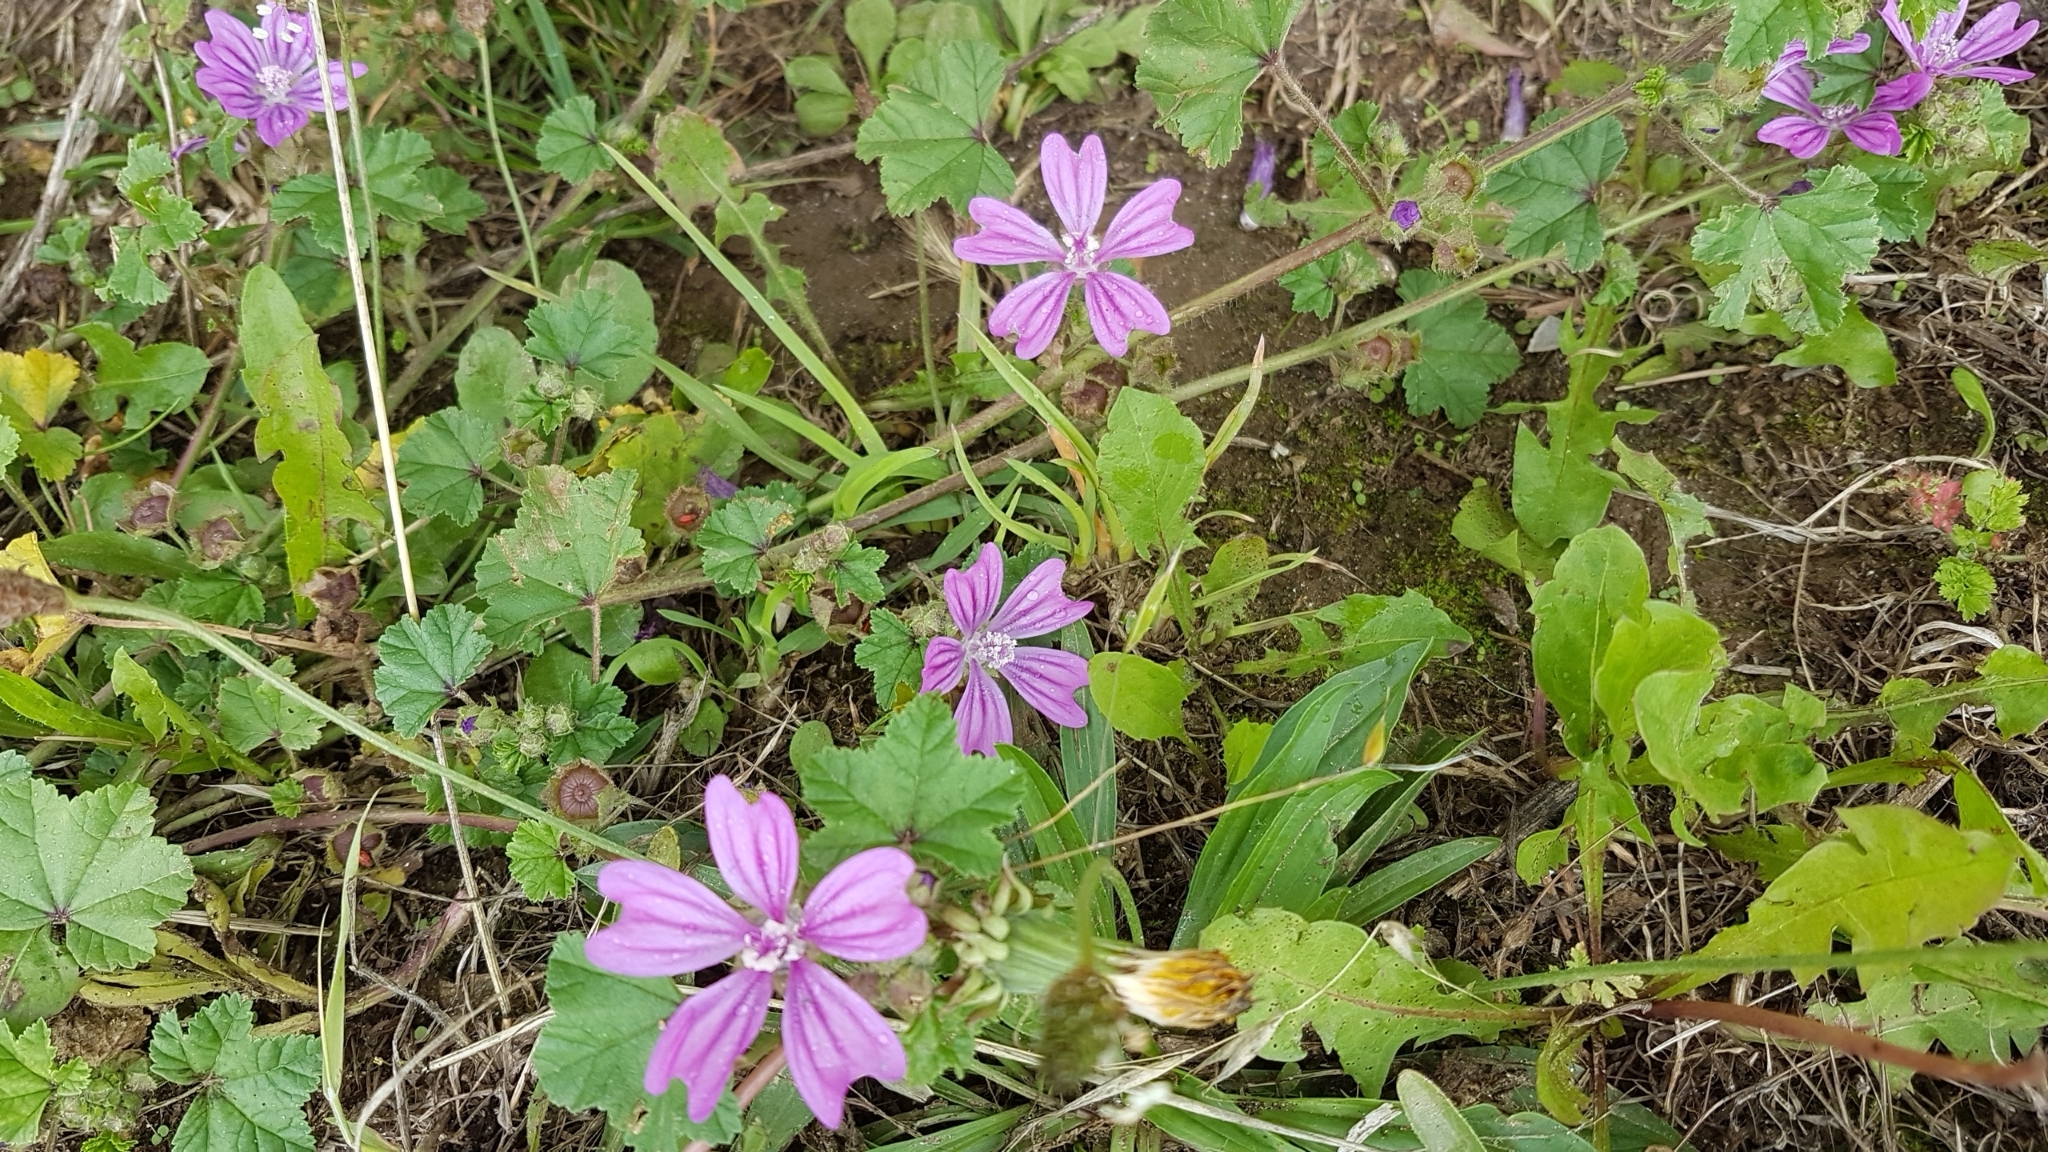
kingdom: Plantae
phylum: Tracheophyta
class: Magnoliopsida
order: Malvales
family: Malvaceae
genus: Malva
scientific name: Malva sylvestris
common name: Common mallow
